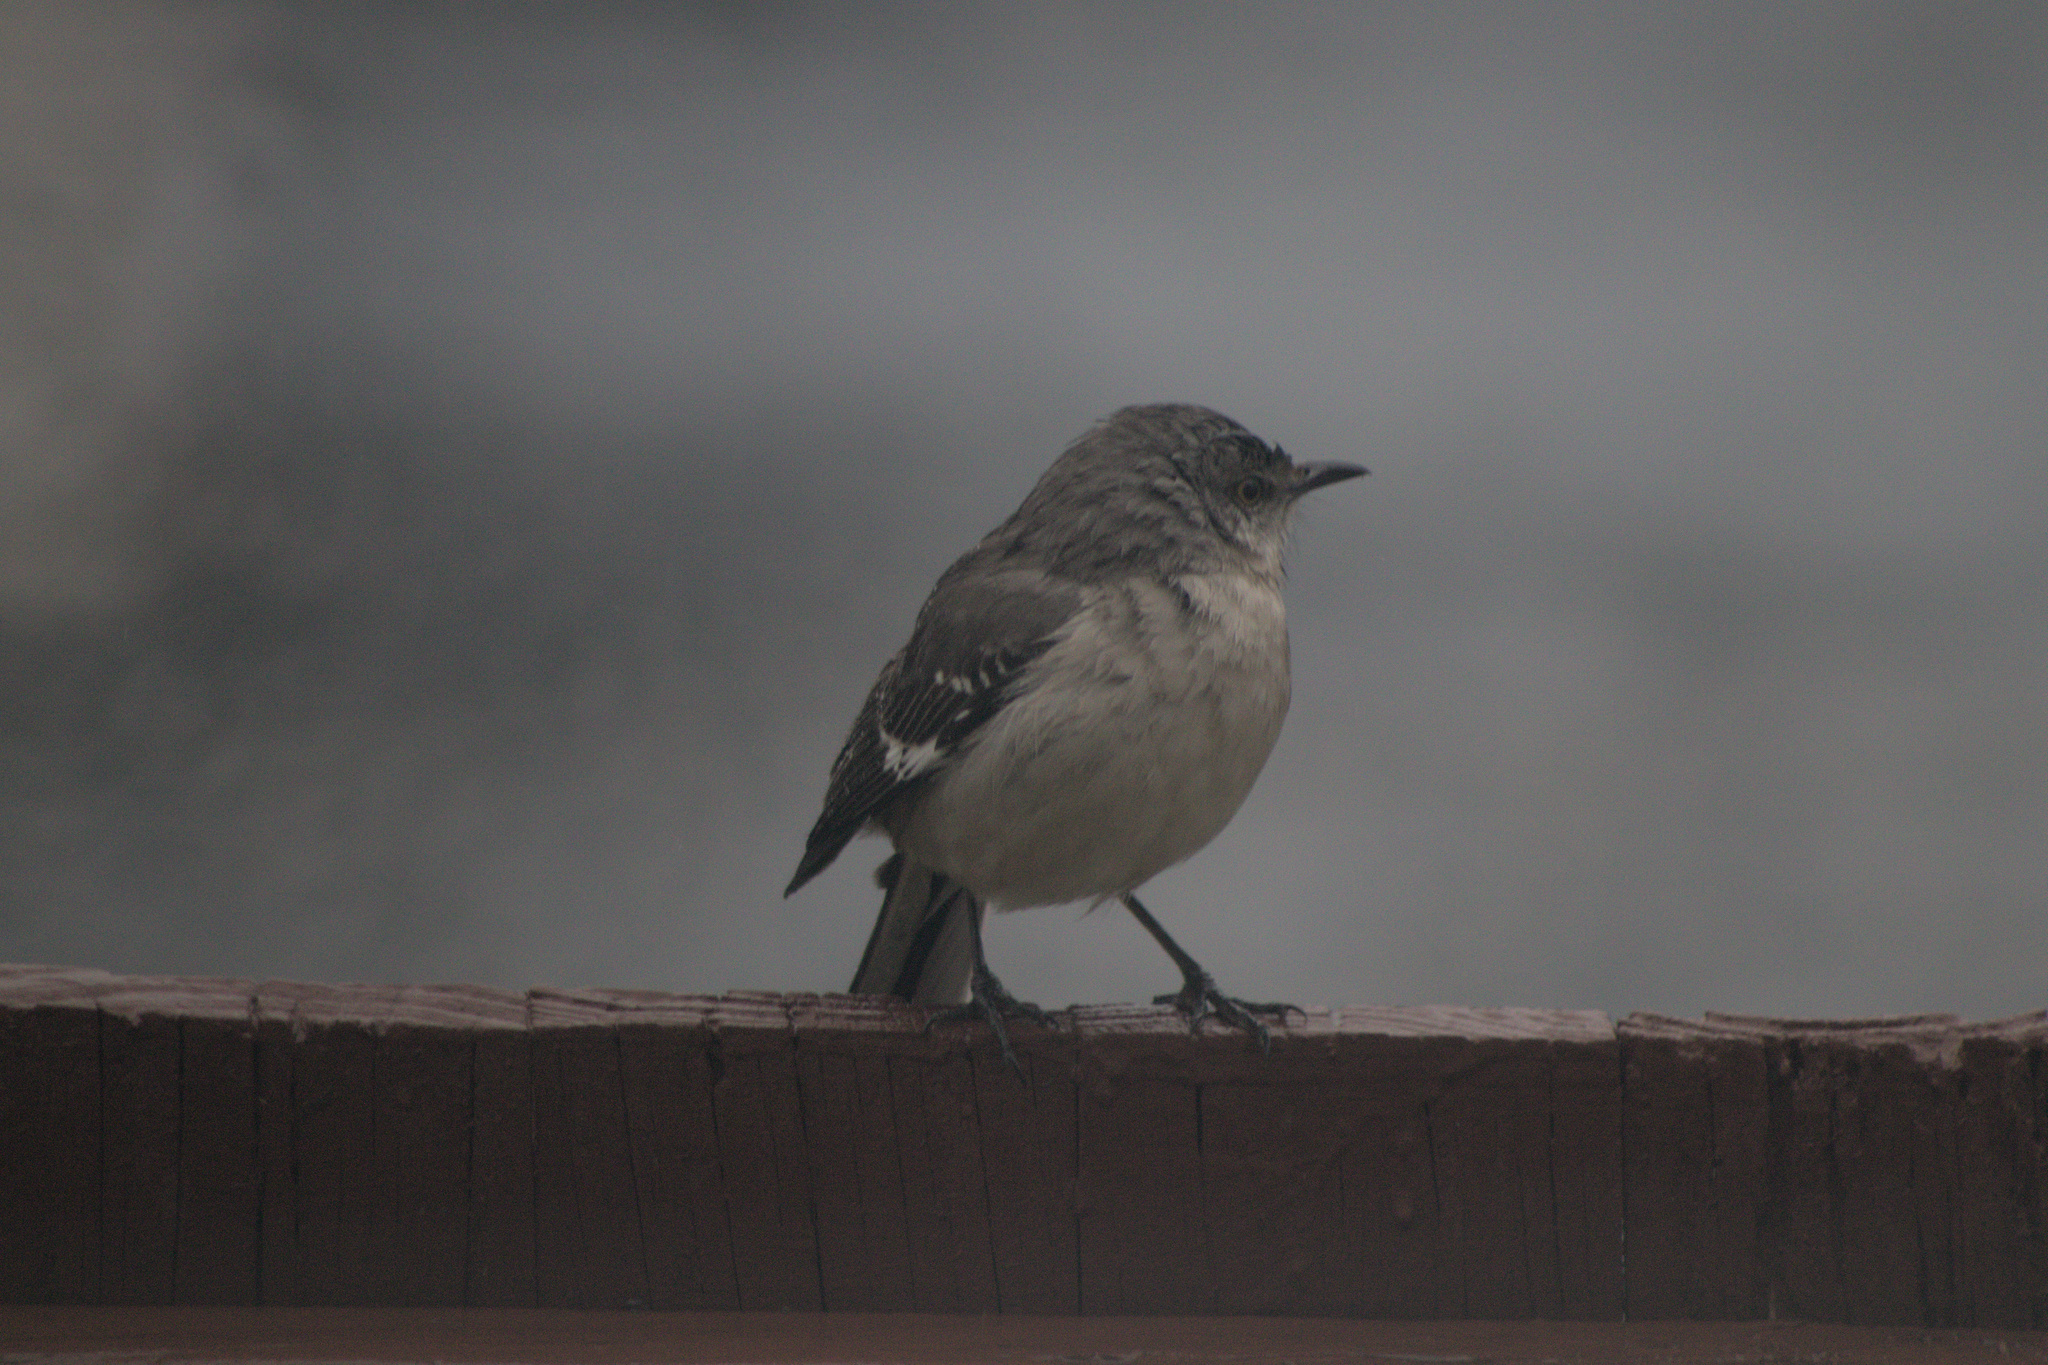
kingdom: Animalia
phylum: Chordata
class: Aves
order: Passeriformes
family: Mimidae
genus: Mimus
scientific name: Mimus polyglottos
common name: Northern mockingbird
